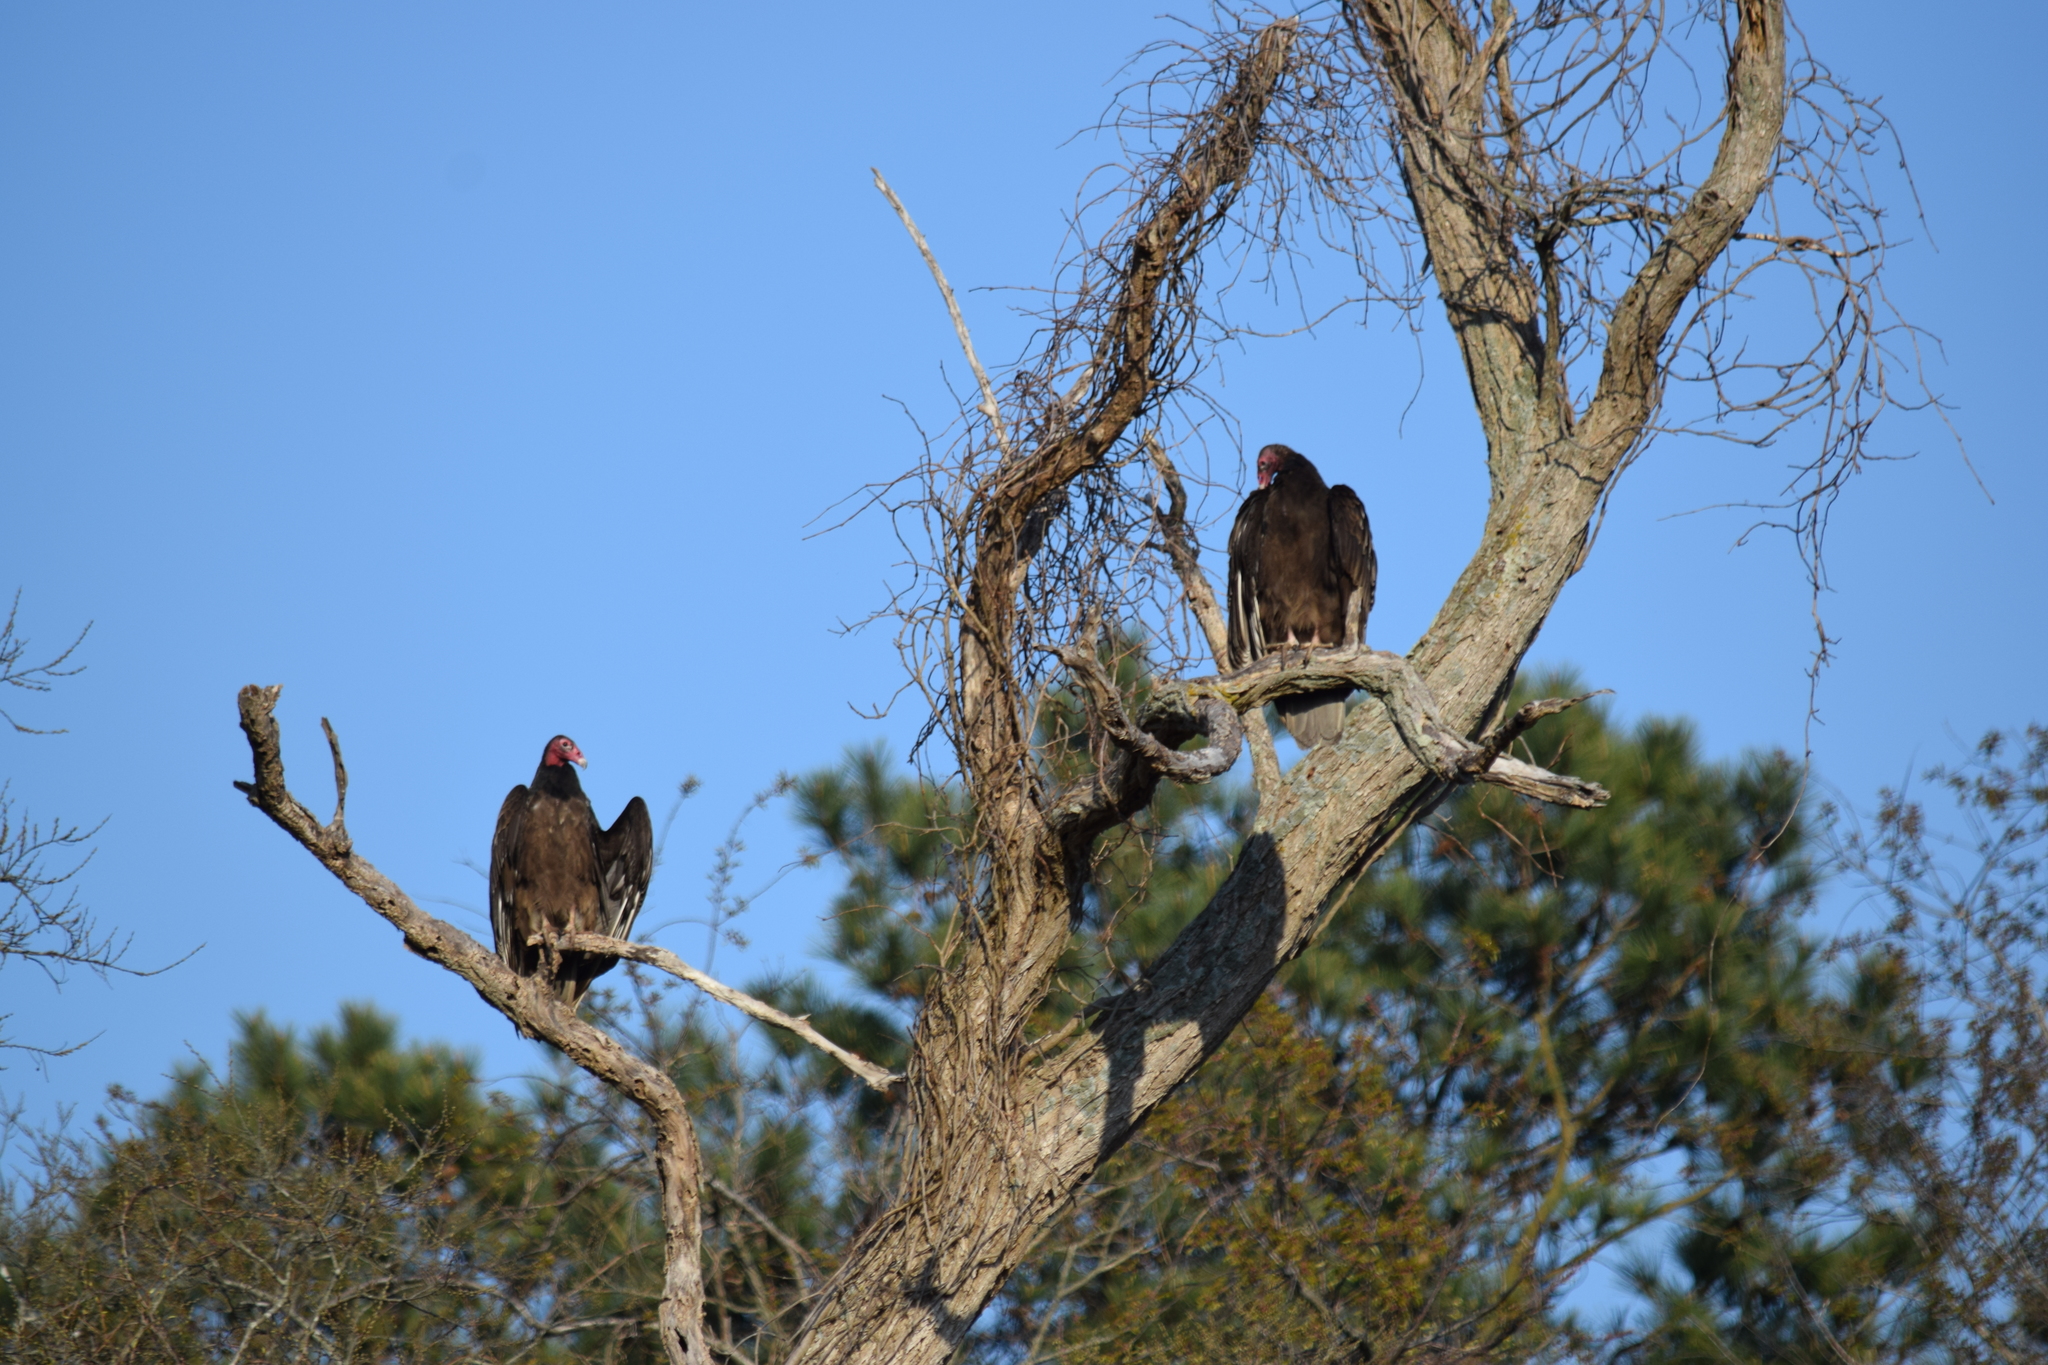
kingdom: Animalia
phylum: Chordata
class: Aves
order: Accipitriformes
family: Cathartidae
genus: Cathartes
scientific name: Cathartes aura
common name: Turkey vulture
